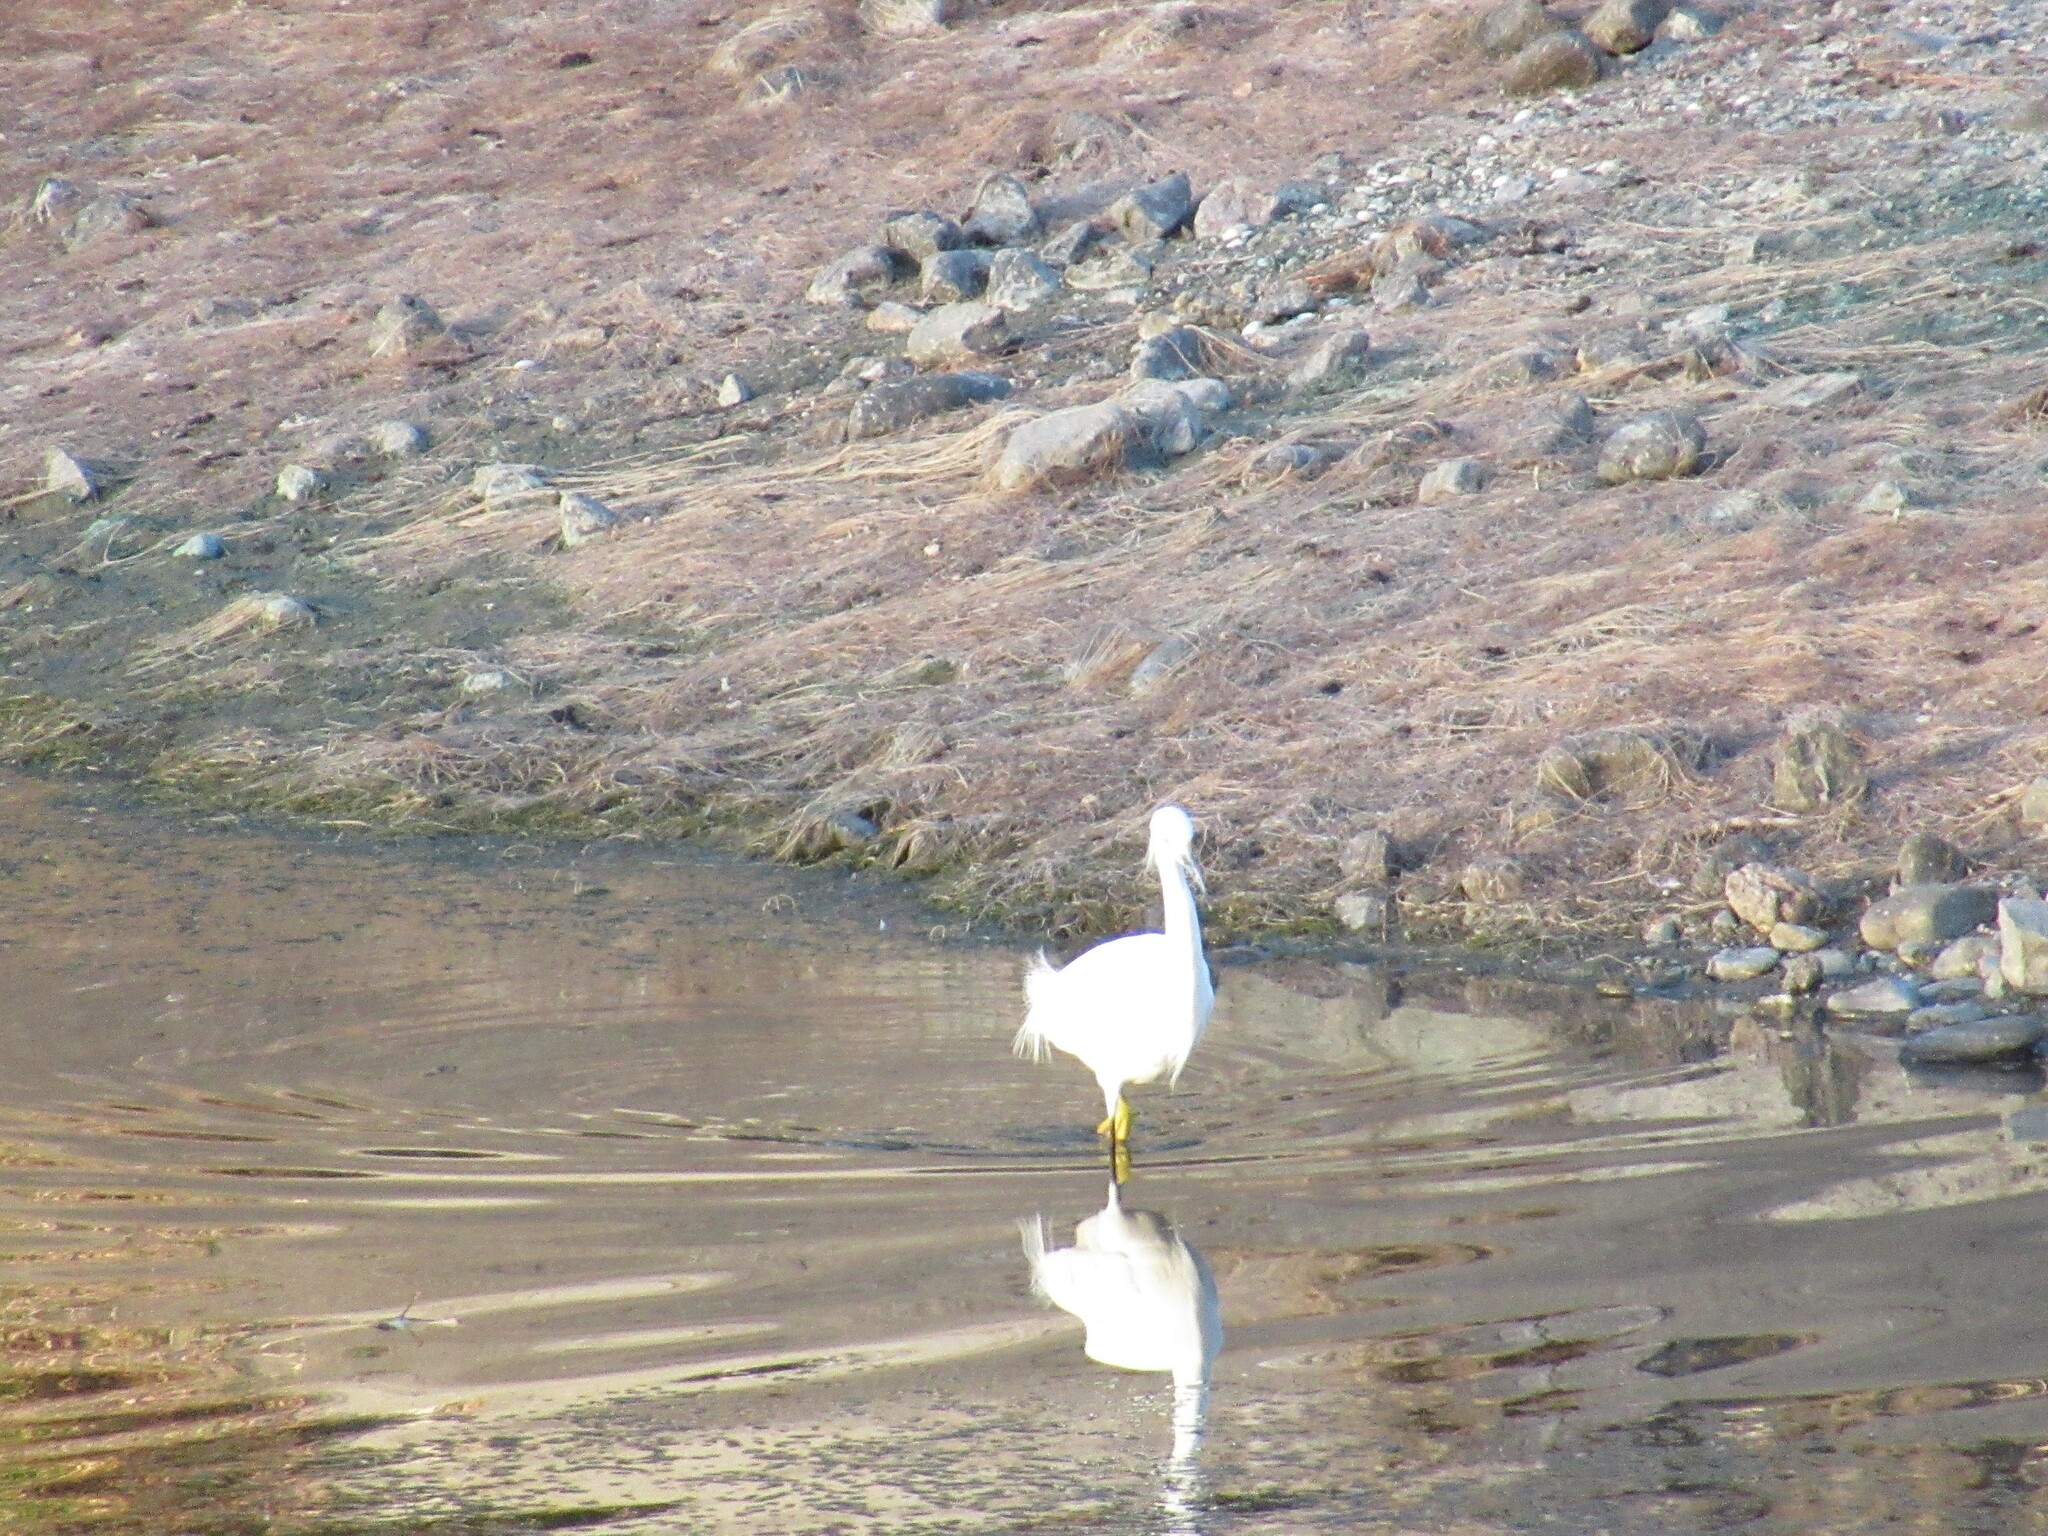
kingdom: Animalia
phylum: Chordata
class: Aves
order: Pelecaniformes
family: Ardeidae
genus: Egretta
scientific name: Egretta thula
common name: Snowy egret
